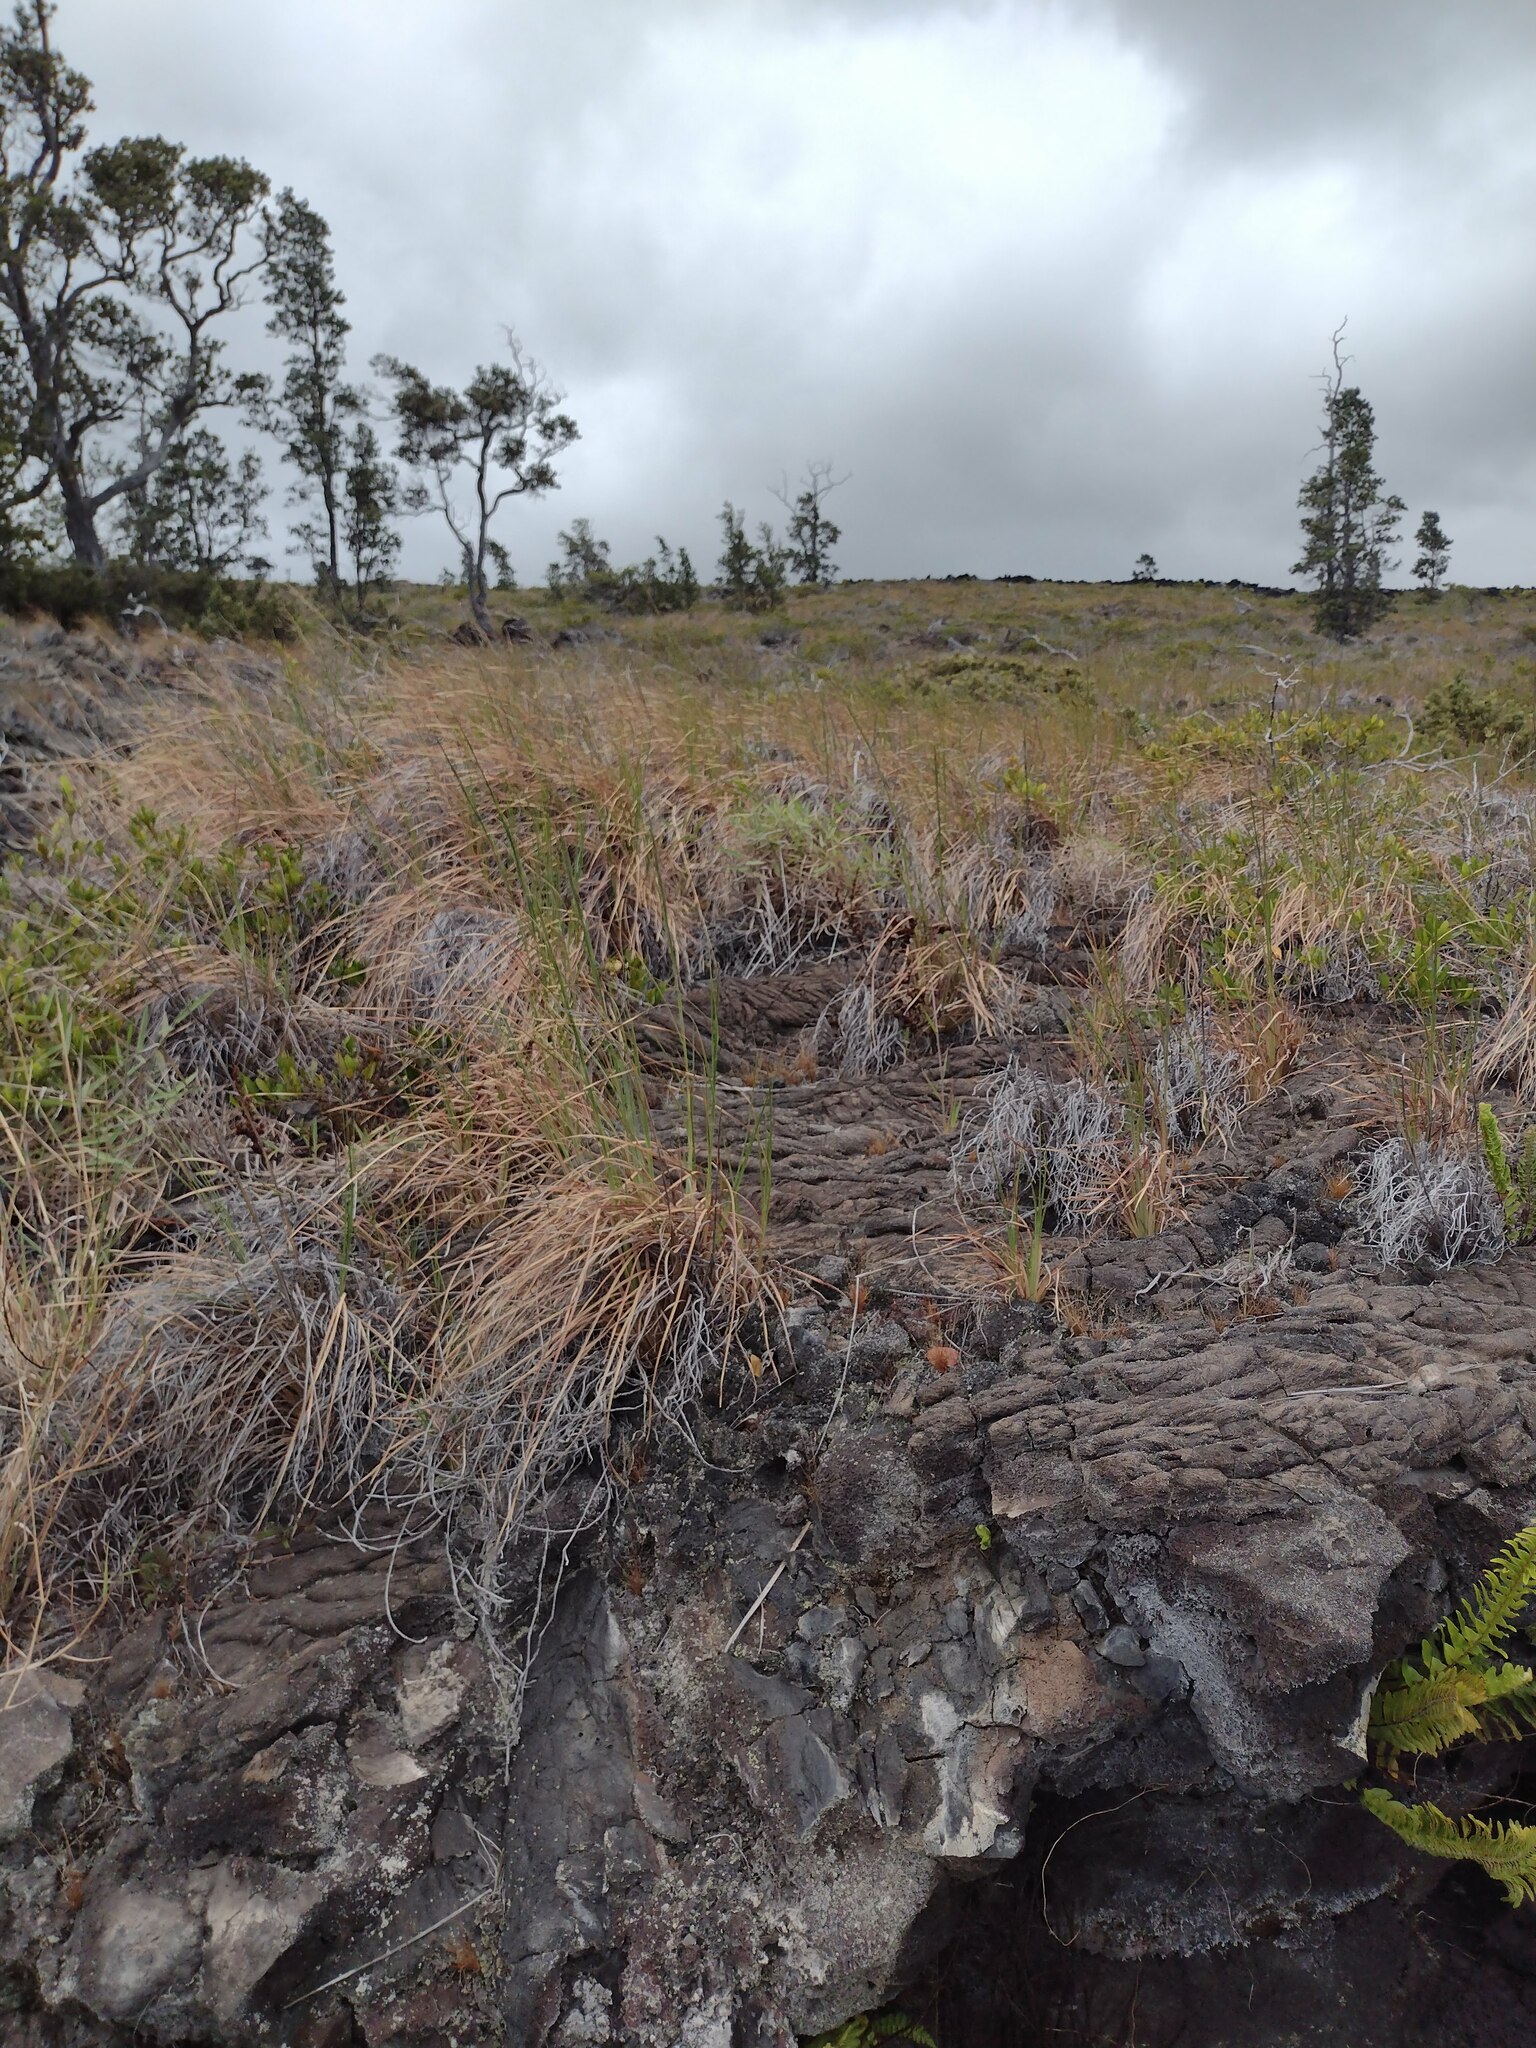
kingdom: Plantae
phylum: Tracheophyta
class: Liliopsida
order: Poales
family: Poaceae
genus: Andropogon
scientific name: Andropogon virginicus
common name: Broomsedge bluestem
